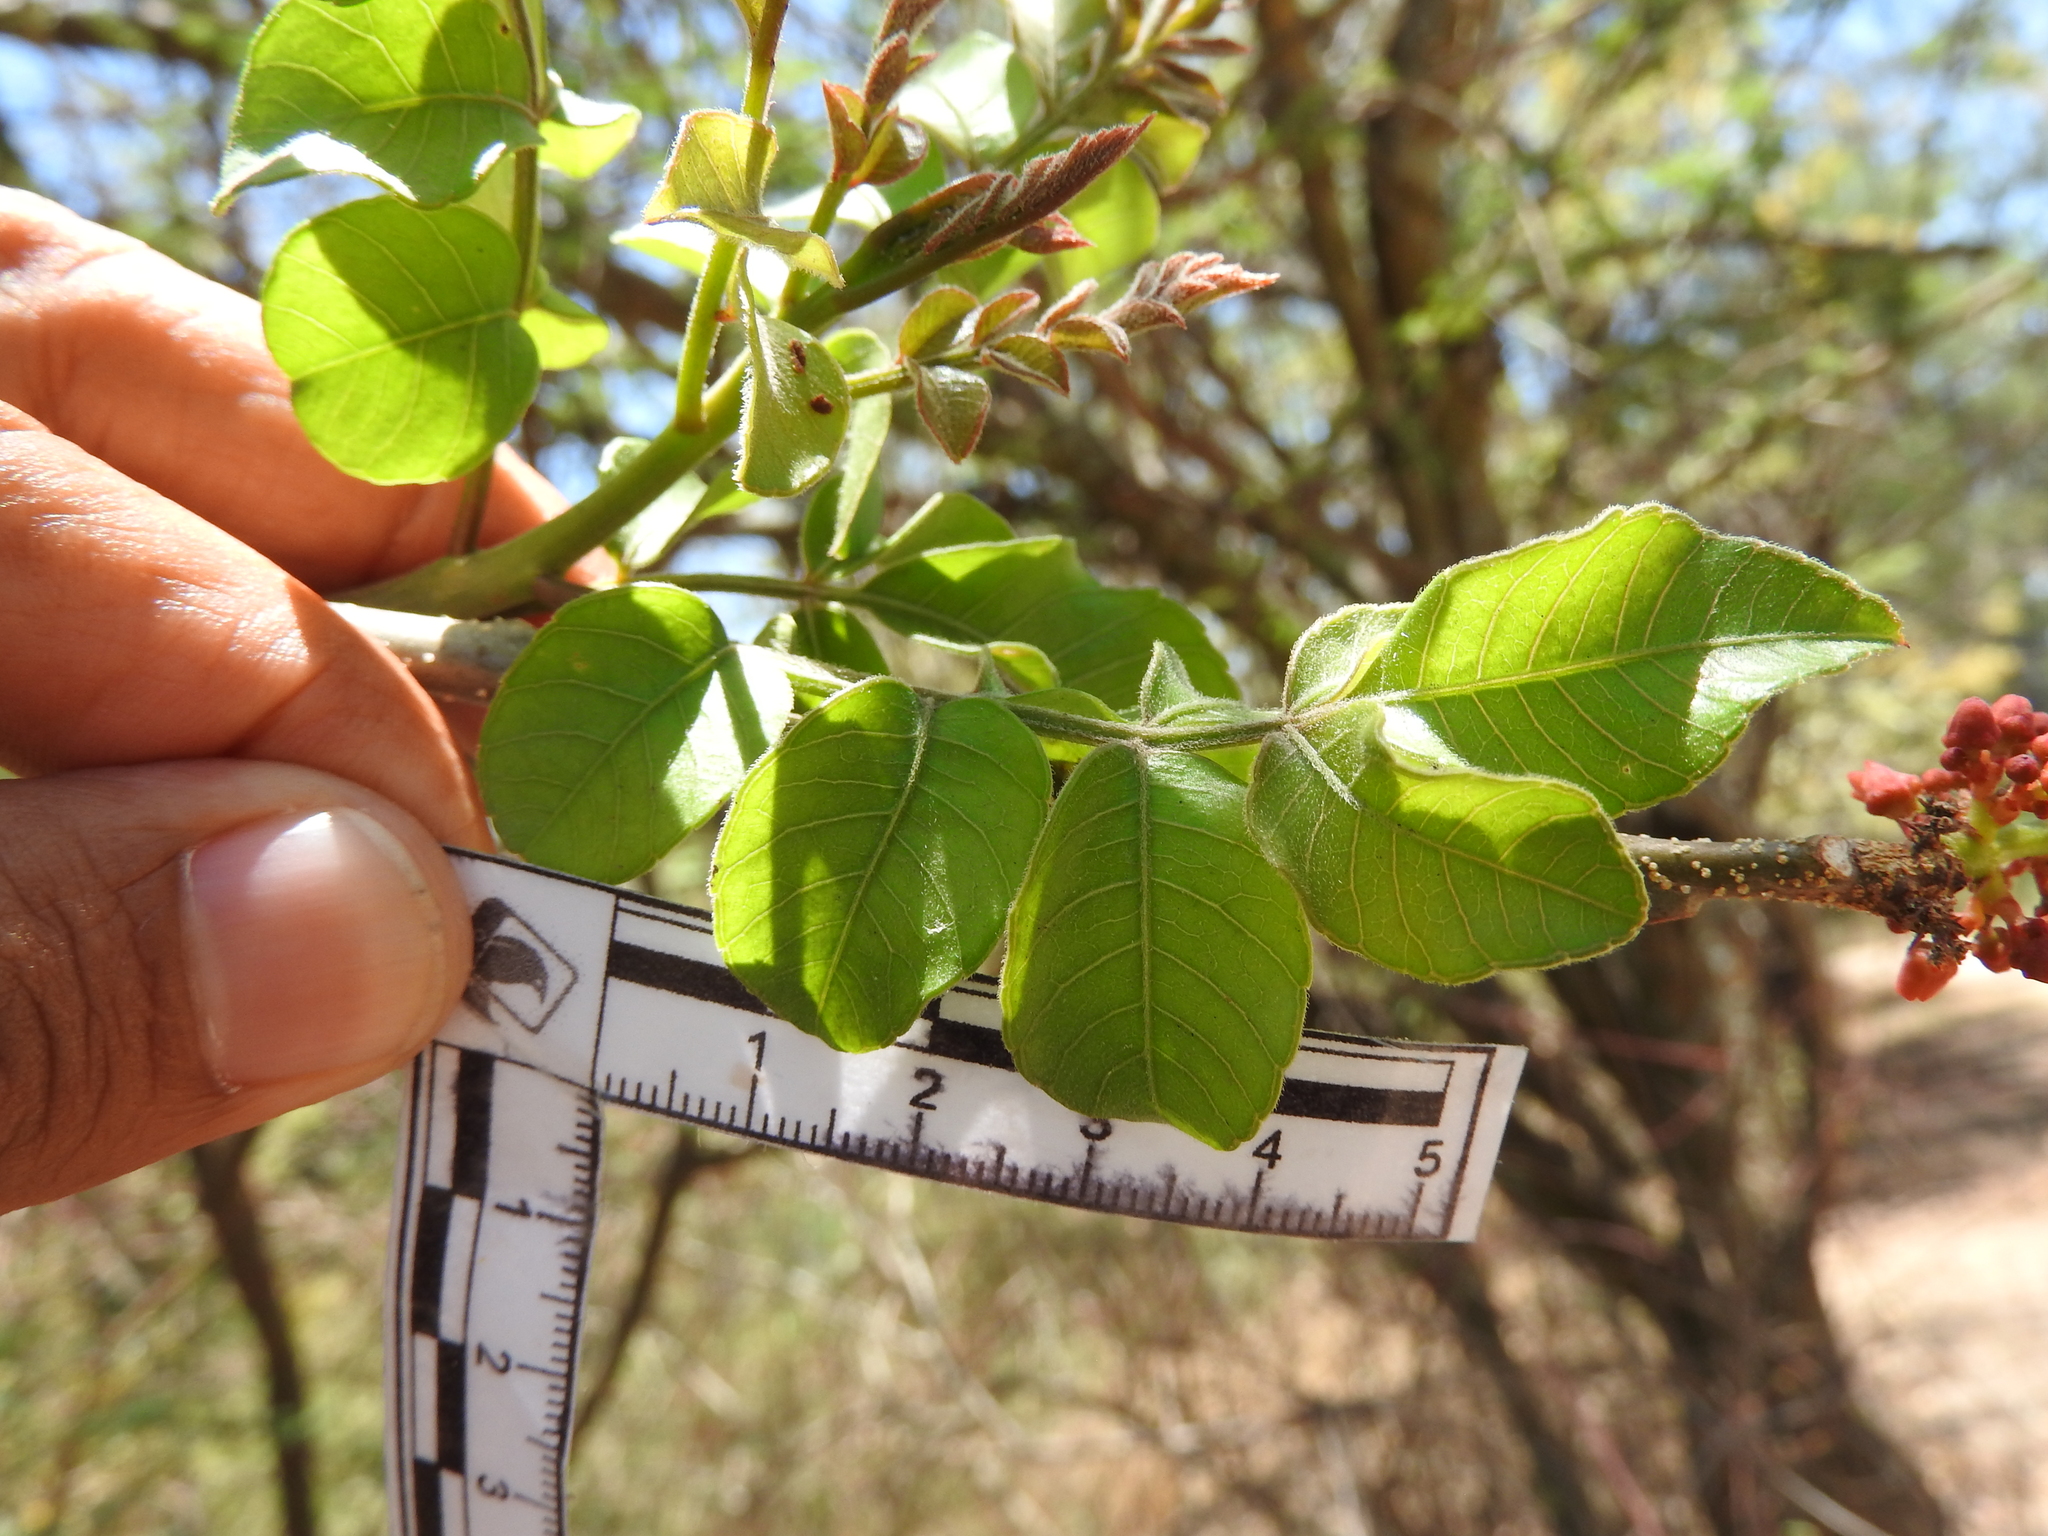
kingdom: Plantae
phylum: Tracheophyta
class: Magnoliopsida
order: Sapindales
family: Anacardiaceae
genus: Spondias
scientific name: Spondias purpurea
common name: Purple mombin
